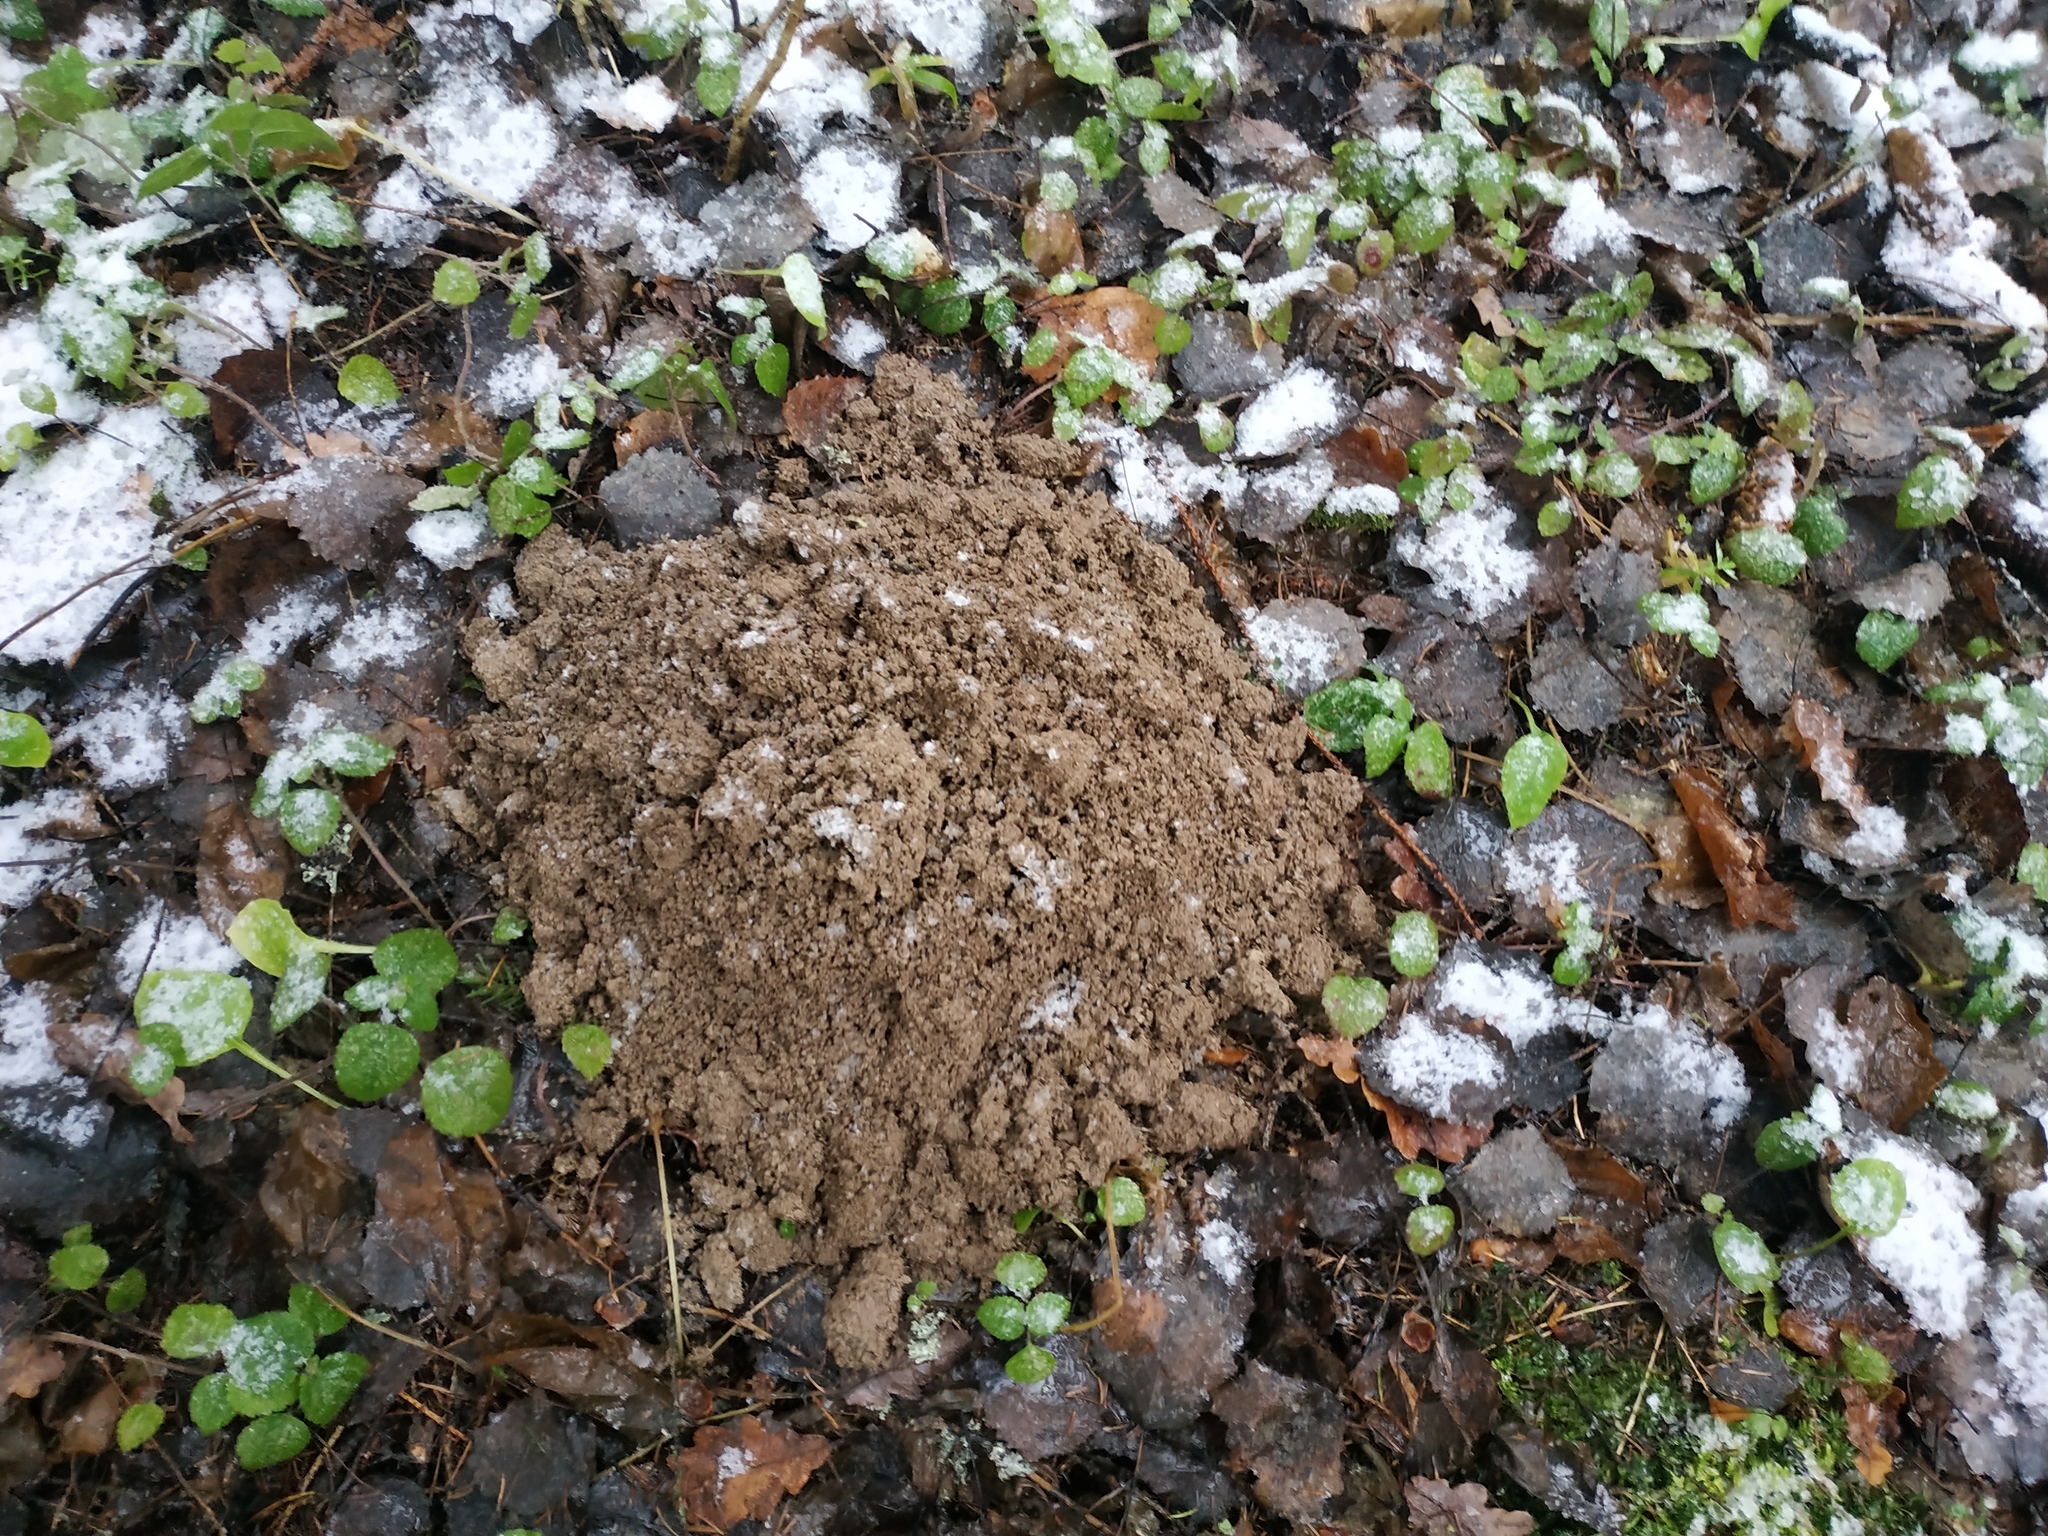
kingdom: Animalia
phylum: Chordata
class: Mammalia
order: Soricomorpha
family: Talpidae
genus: Talpa
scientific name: Talpa europaea
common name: European mole
